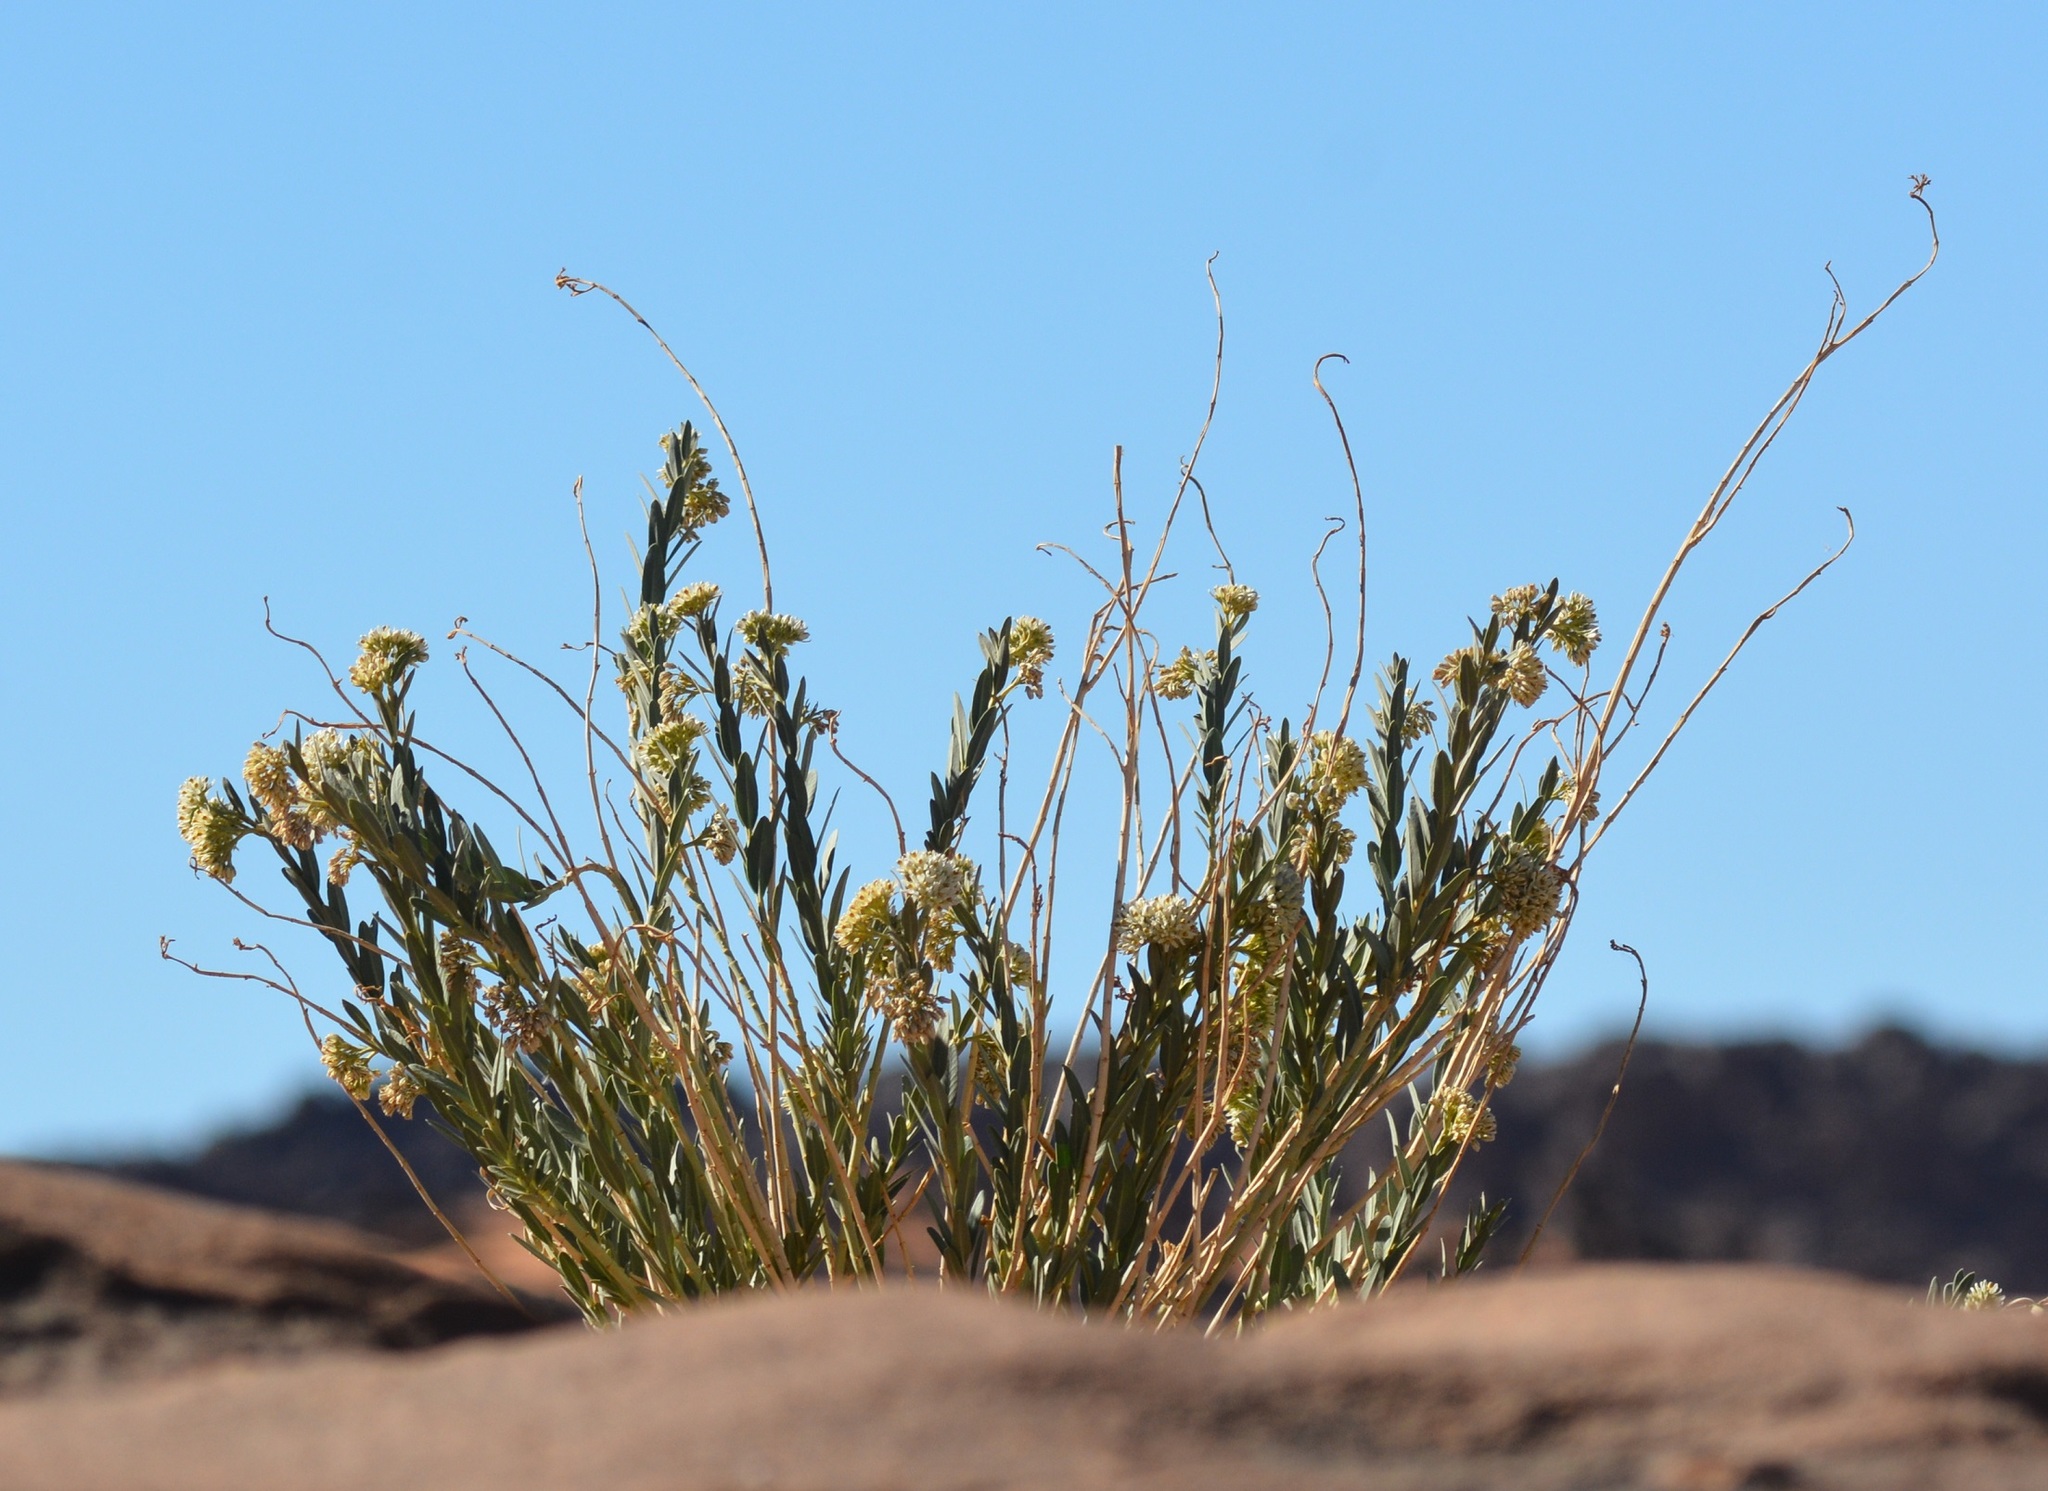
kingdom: Plantae
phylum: Tracheophyta
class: Magnoliopsida
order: Gentianales
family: Apocynaceae
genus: Solenostemma
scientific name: Solenostemma oleifolium
